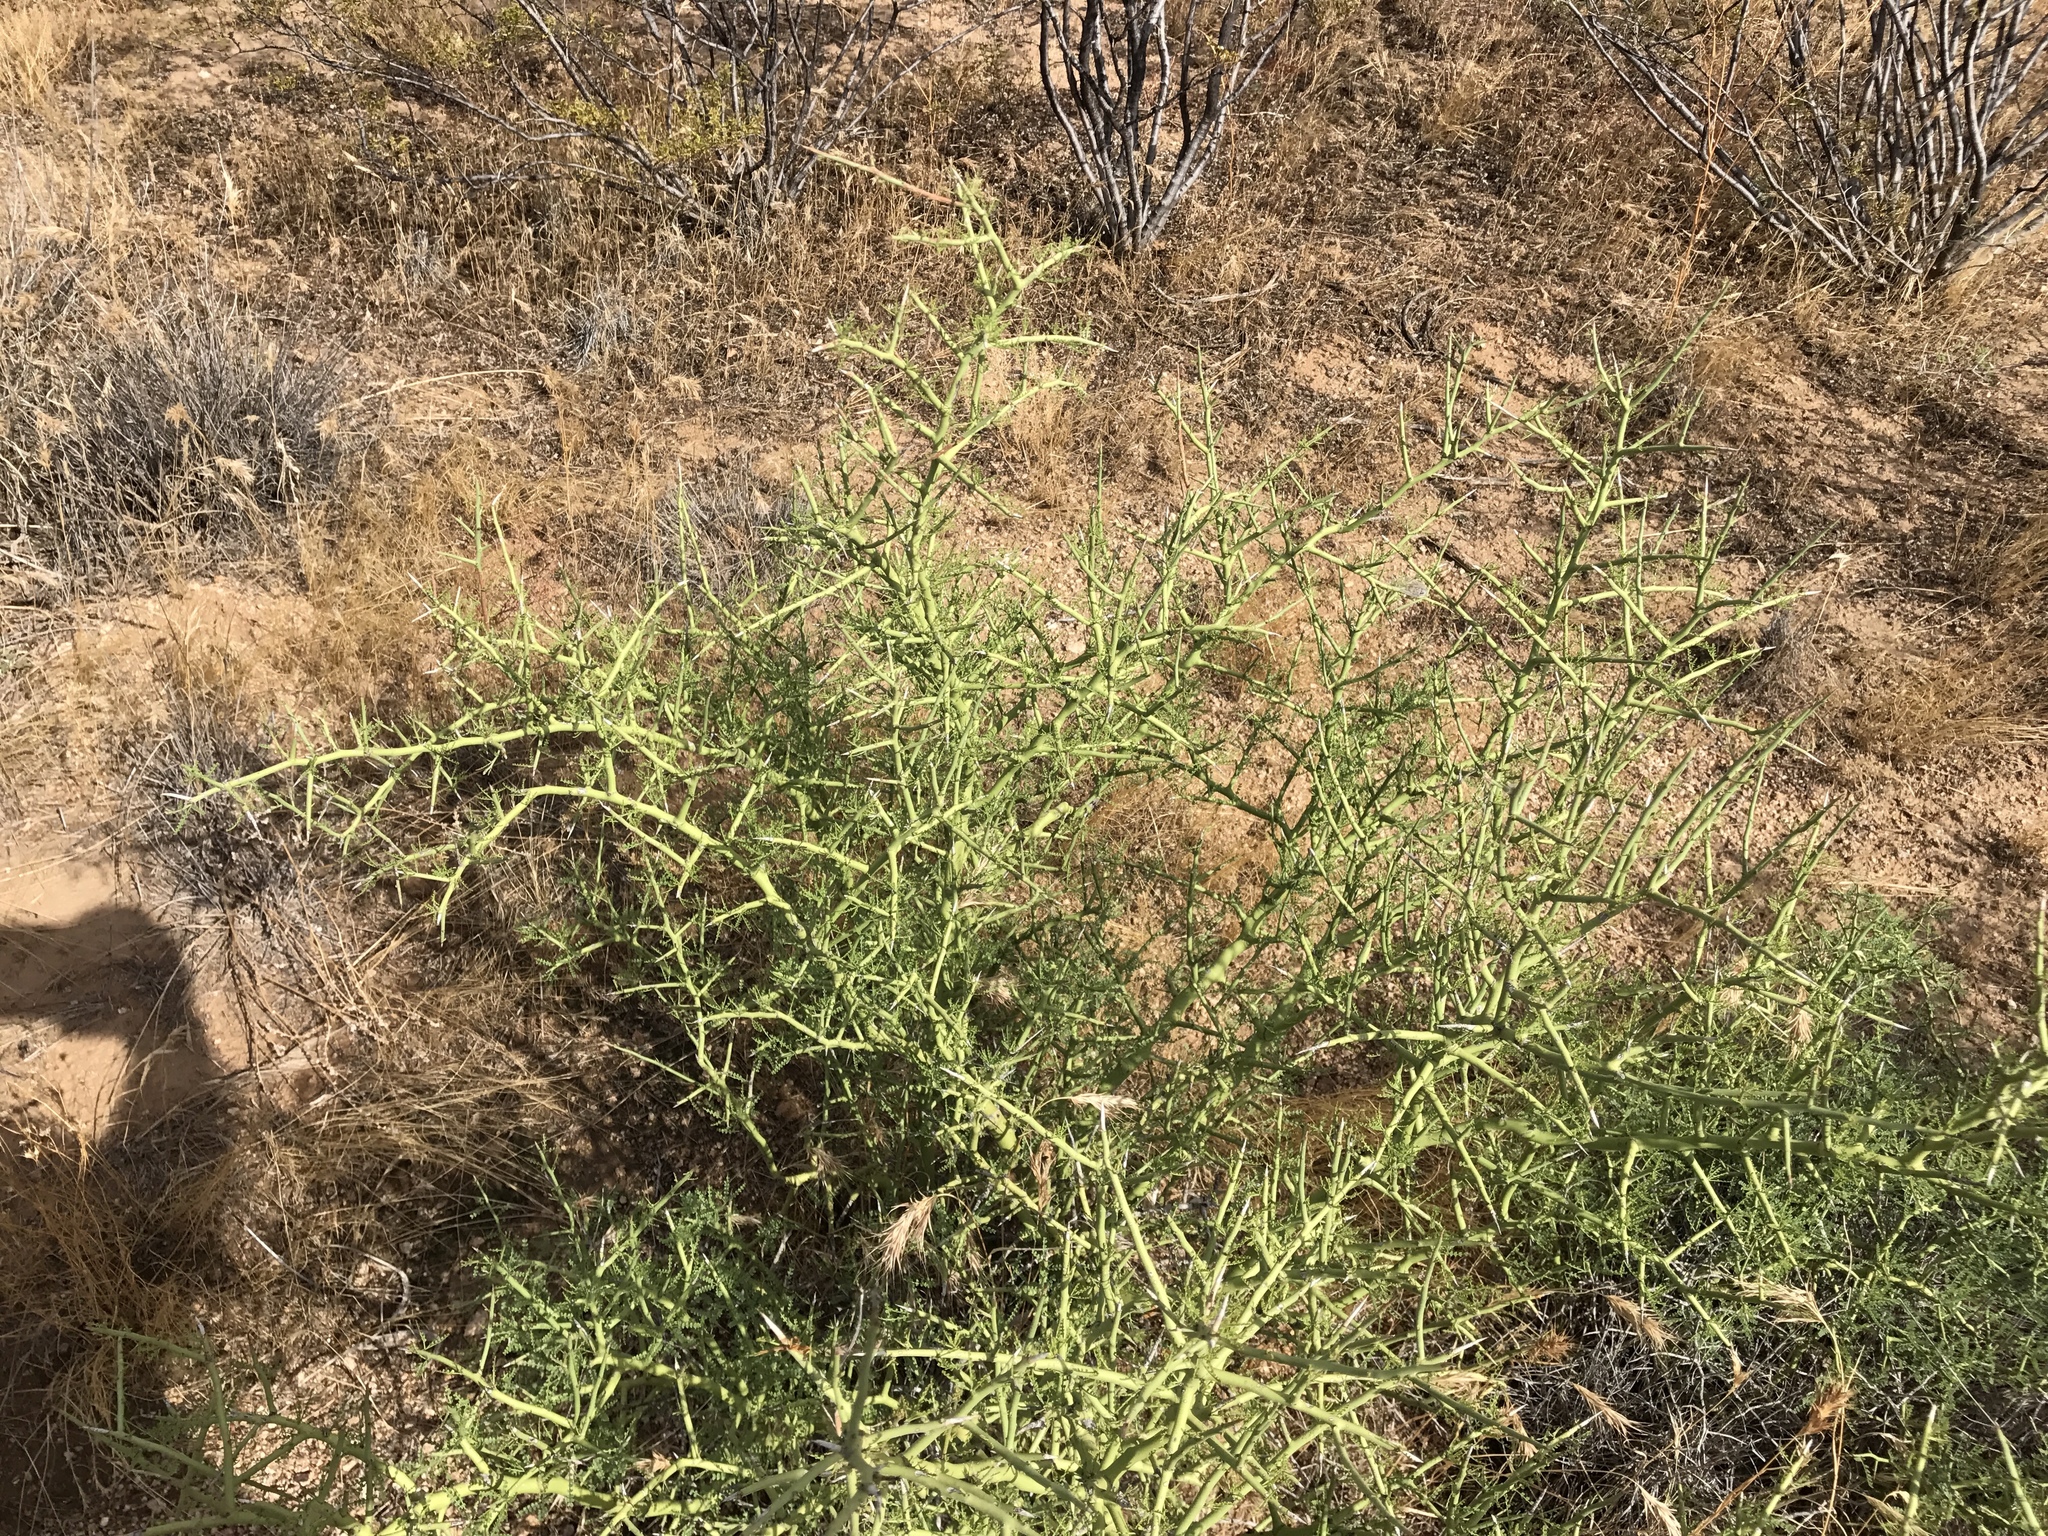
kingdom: Plantae
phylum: Tracheophyta
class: Magnoliopsida
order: Fabales
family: Fabaceae
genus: Parkinsonia
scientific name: Parkinsonia microphylla
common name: Yellow paloverde
